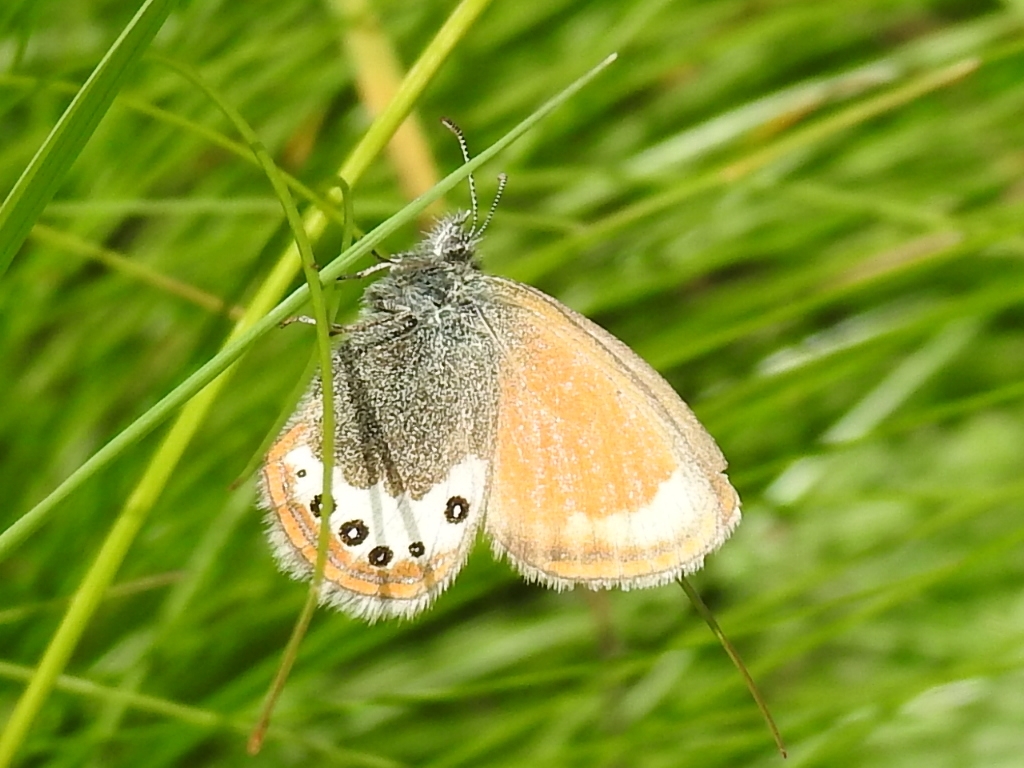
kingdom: Animalia
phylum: Arthropoda
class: Insecta
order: Lepidoptera
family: Nymphalidae
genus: Coenonympha
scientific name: Coenonympha
